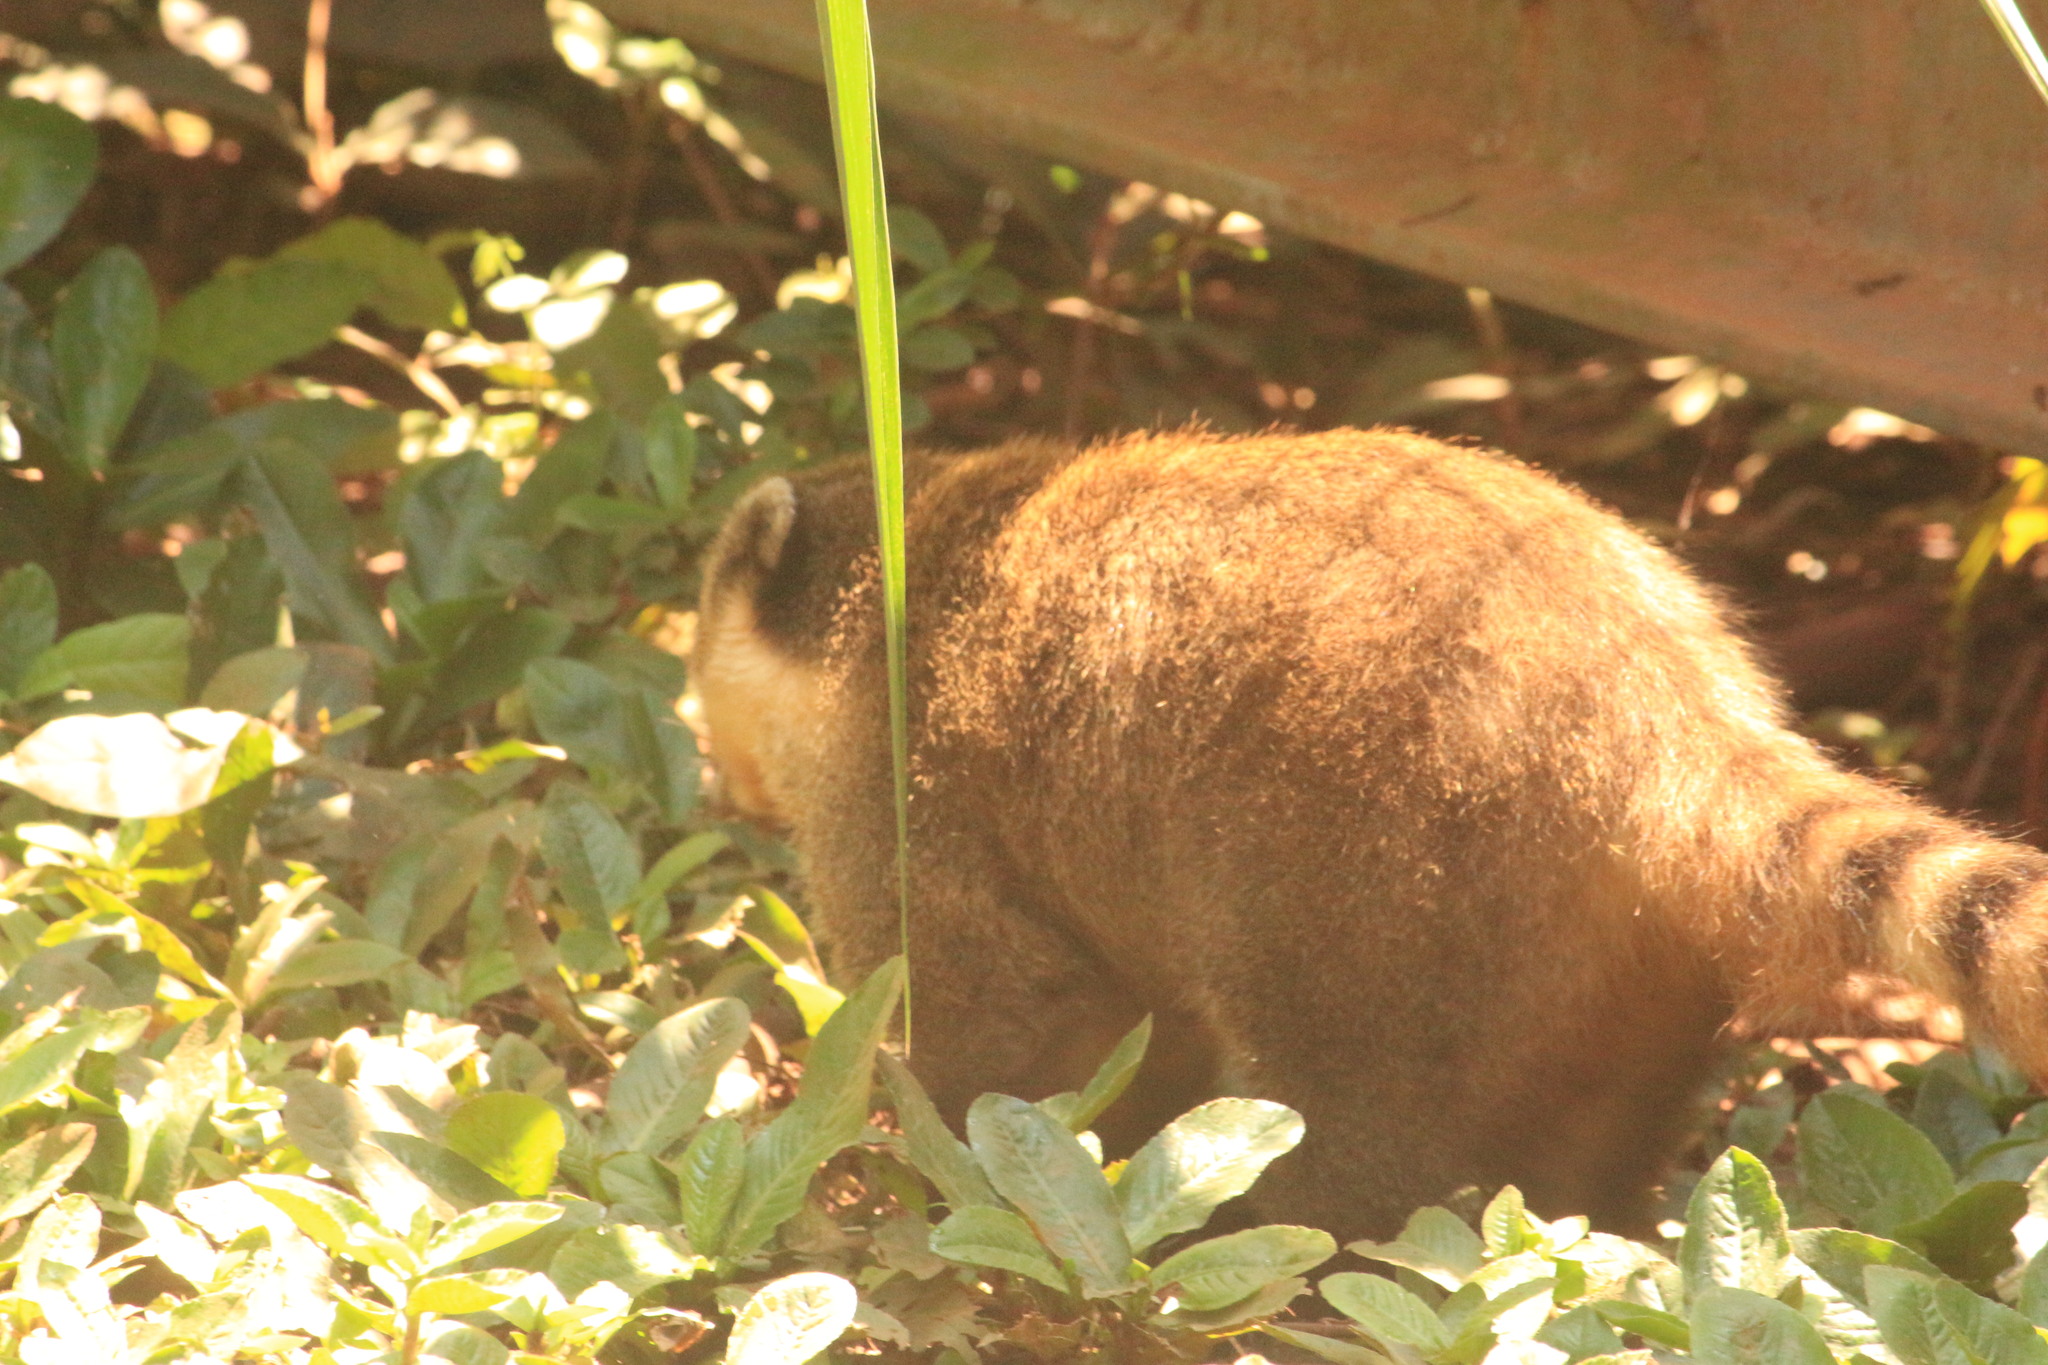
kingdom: Animalia
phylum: Chordata
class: Mammalia
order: Carnivora
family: Procyonidae
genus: Nasua
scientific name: Nasua nasua
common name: South american coati
